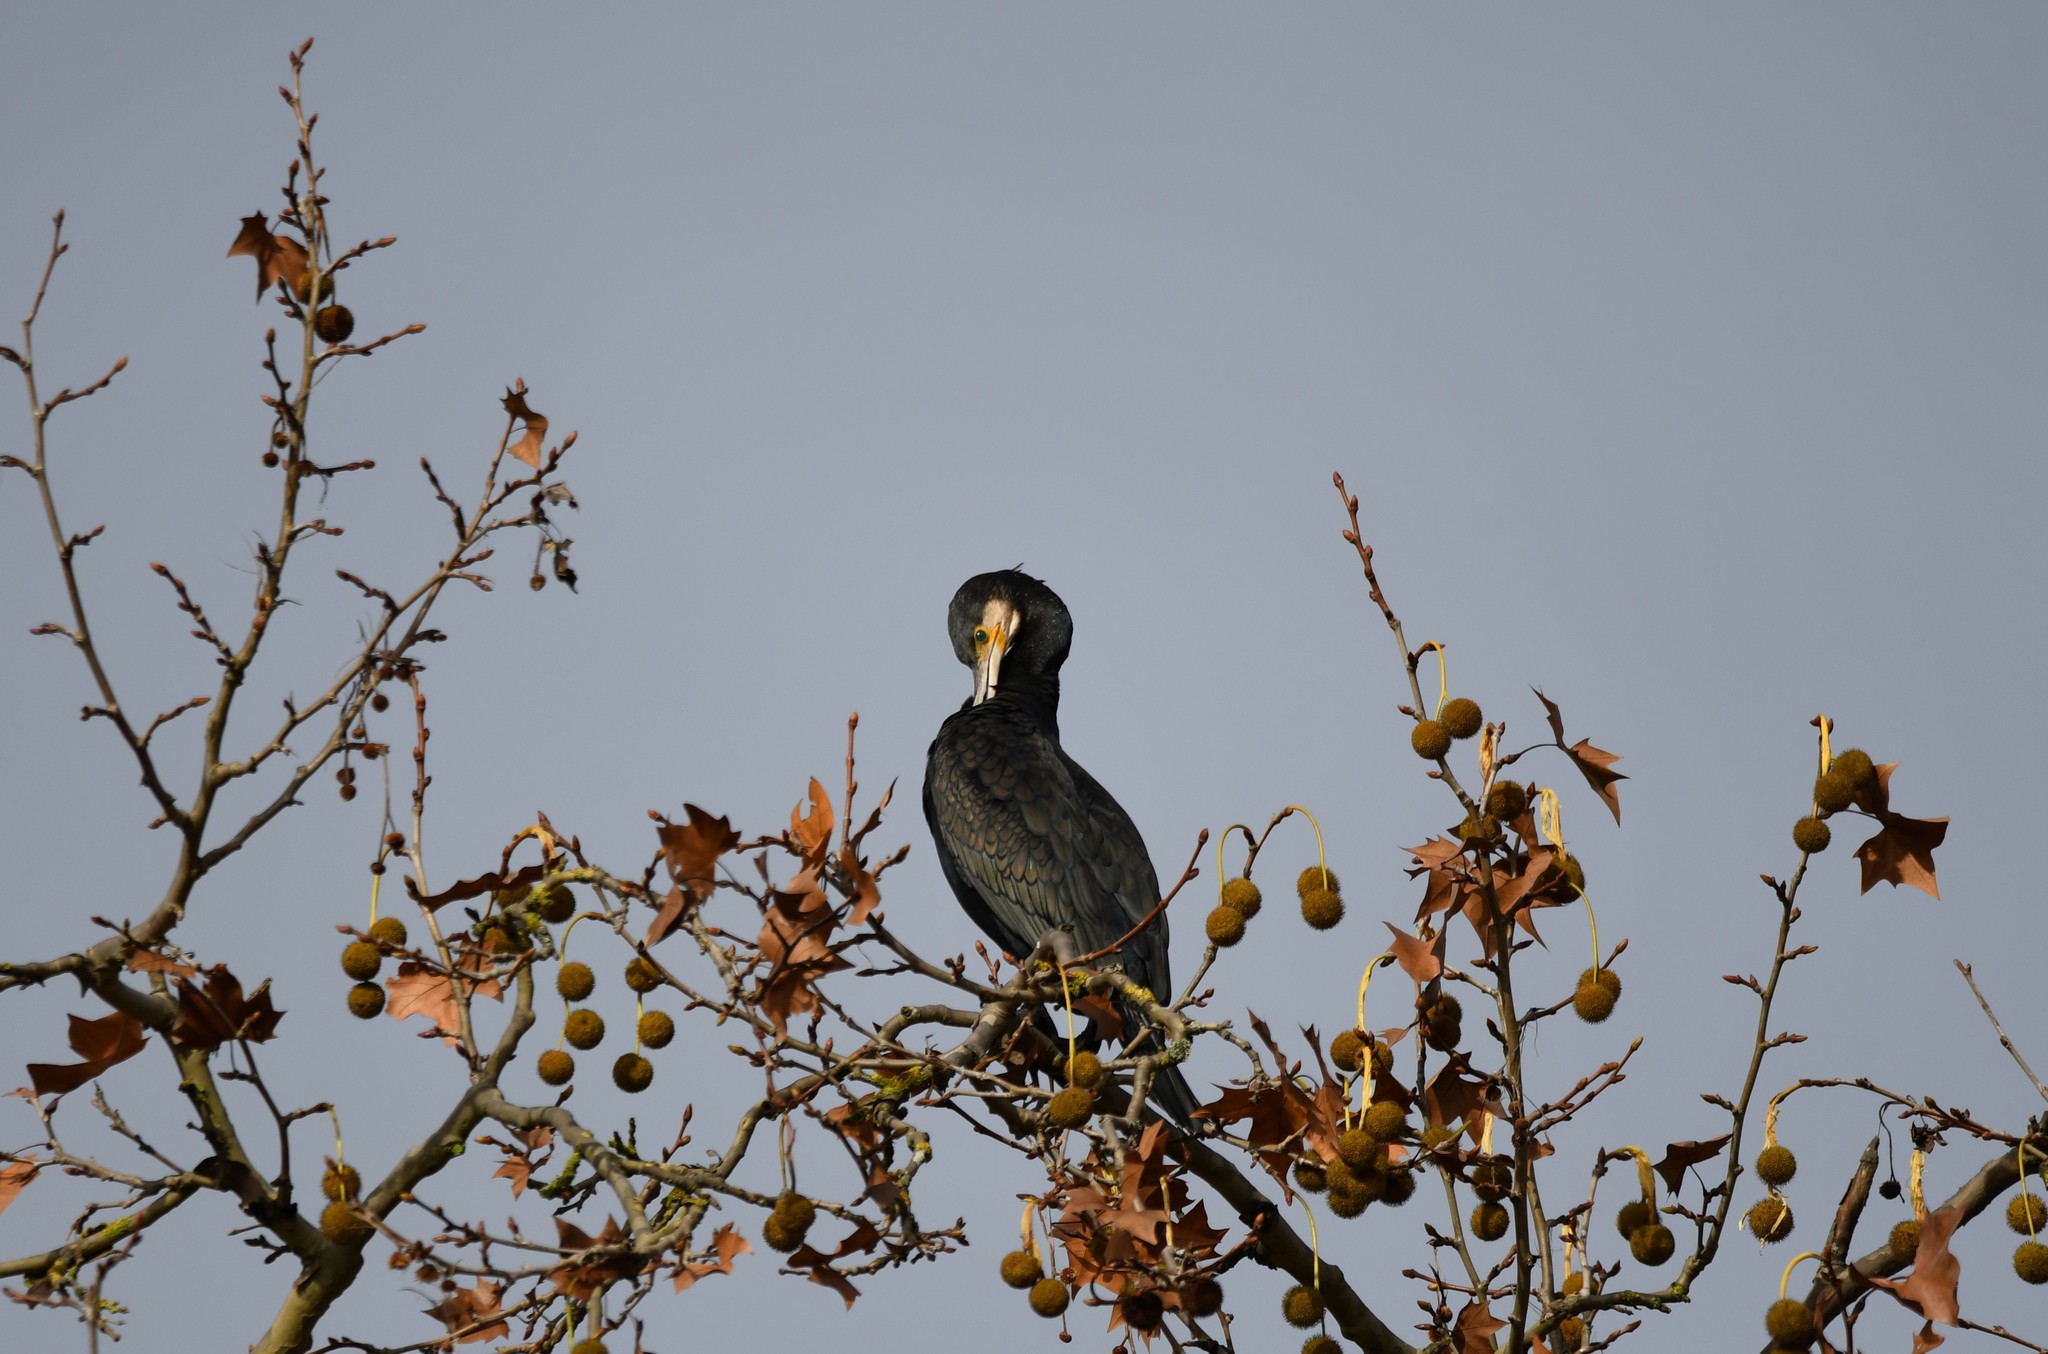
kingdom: Animalia
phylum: Chordata
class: Aves
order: Suliformes
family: Phalacrocoracidae
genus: Phalacrocorax
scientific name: Phalacrocorax carbo
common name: Great cormorant
